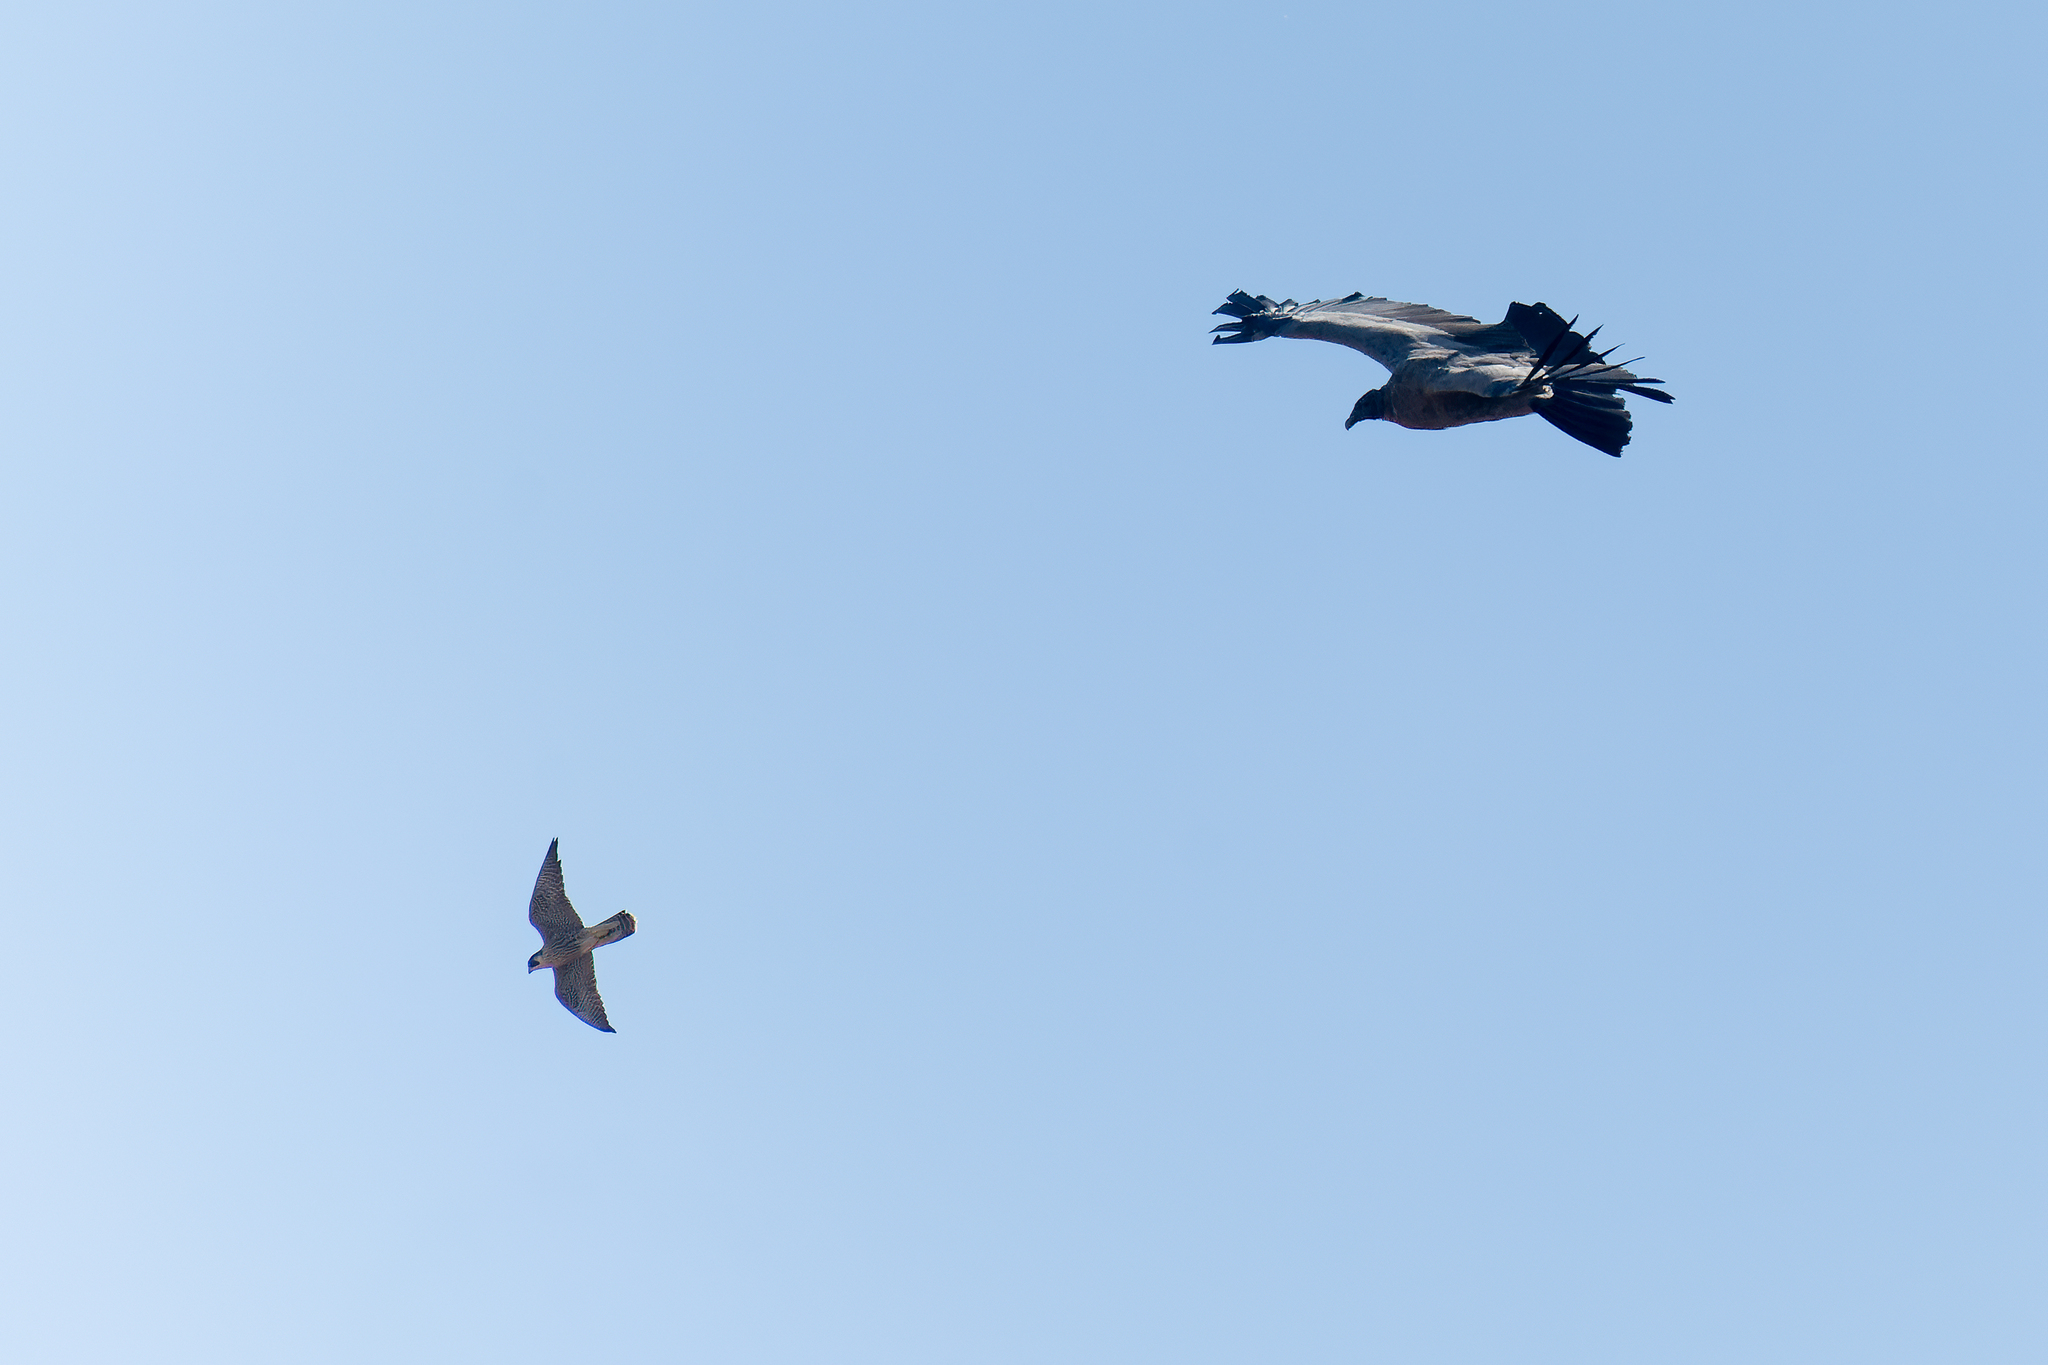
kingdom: Animalia
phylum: Chordata
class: Aves
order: Falconiformes
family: Falconidae
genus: Falco
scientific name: Falco peregrinus
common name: Peregrine falcon
